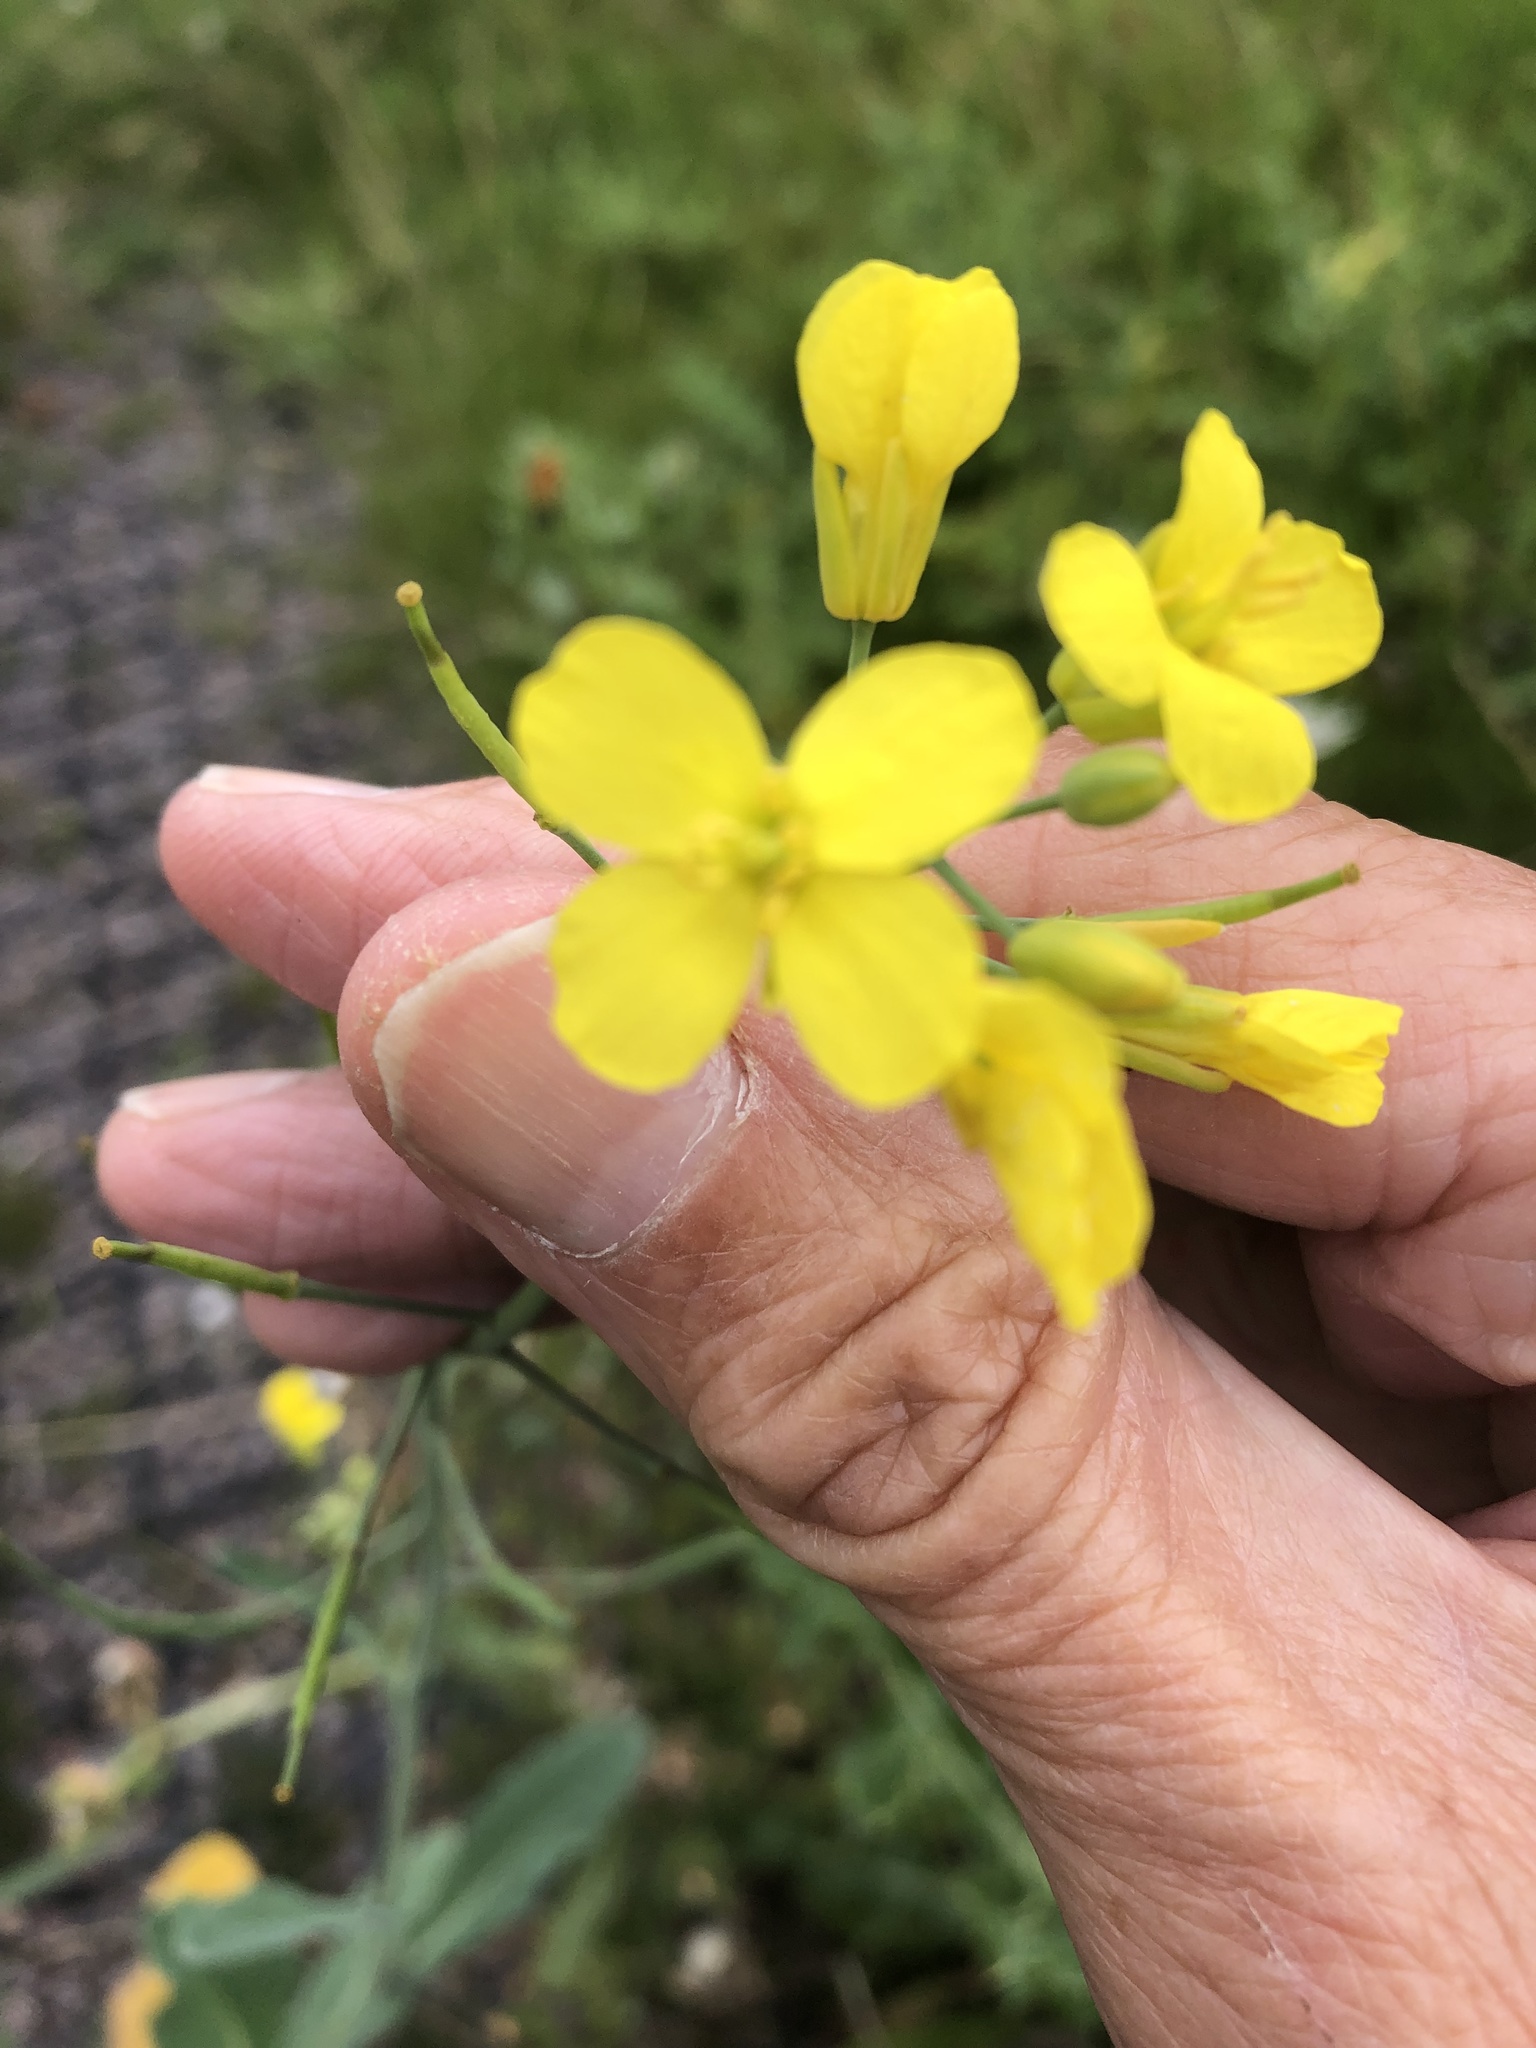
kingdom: Plantae
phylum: Tracheophyta
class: Magnoliopsida
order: Brassicales
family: Brassicaceae
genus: Brassica
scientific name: Brassica rapa
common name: Field mustard
